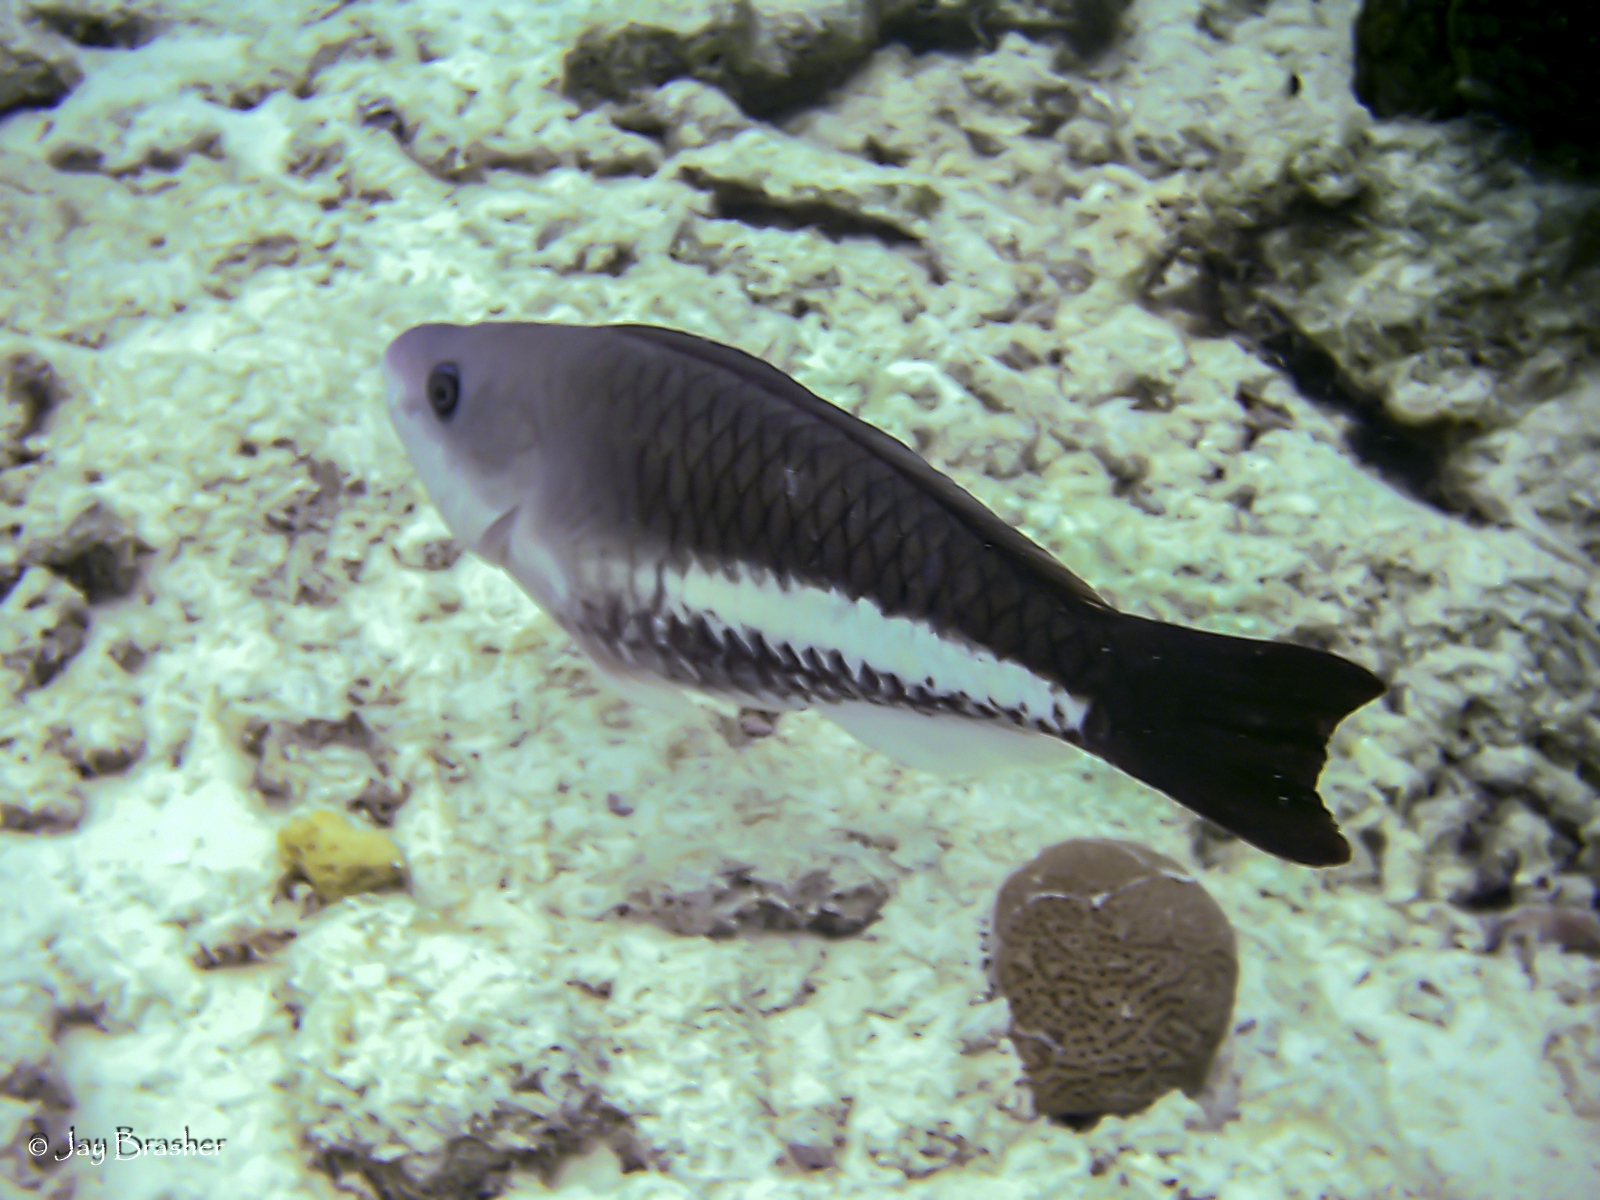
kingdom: Animalia
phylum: Chordata
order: Perciformes
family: Scaridae
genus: Scarus
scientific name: Scarus vetula
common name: Queen parrotfish
